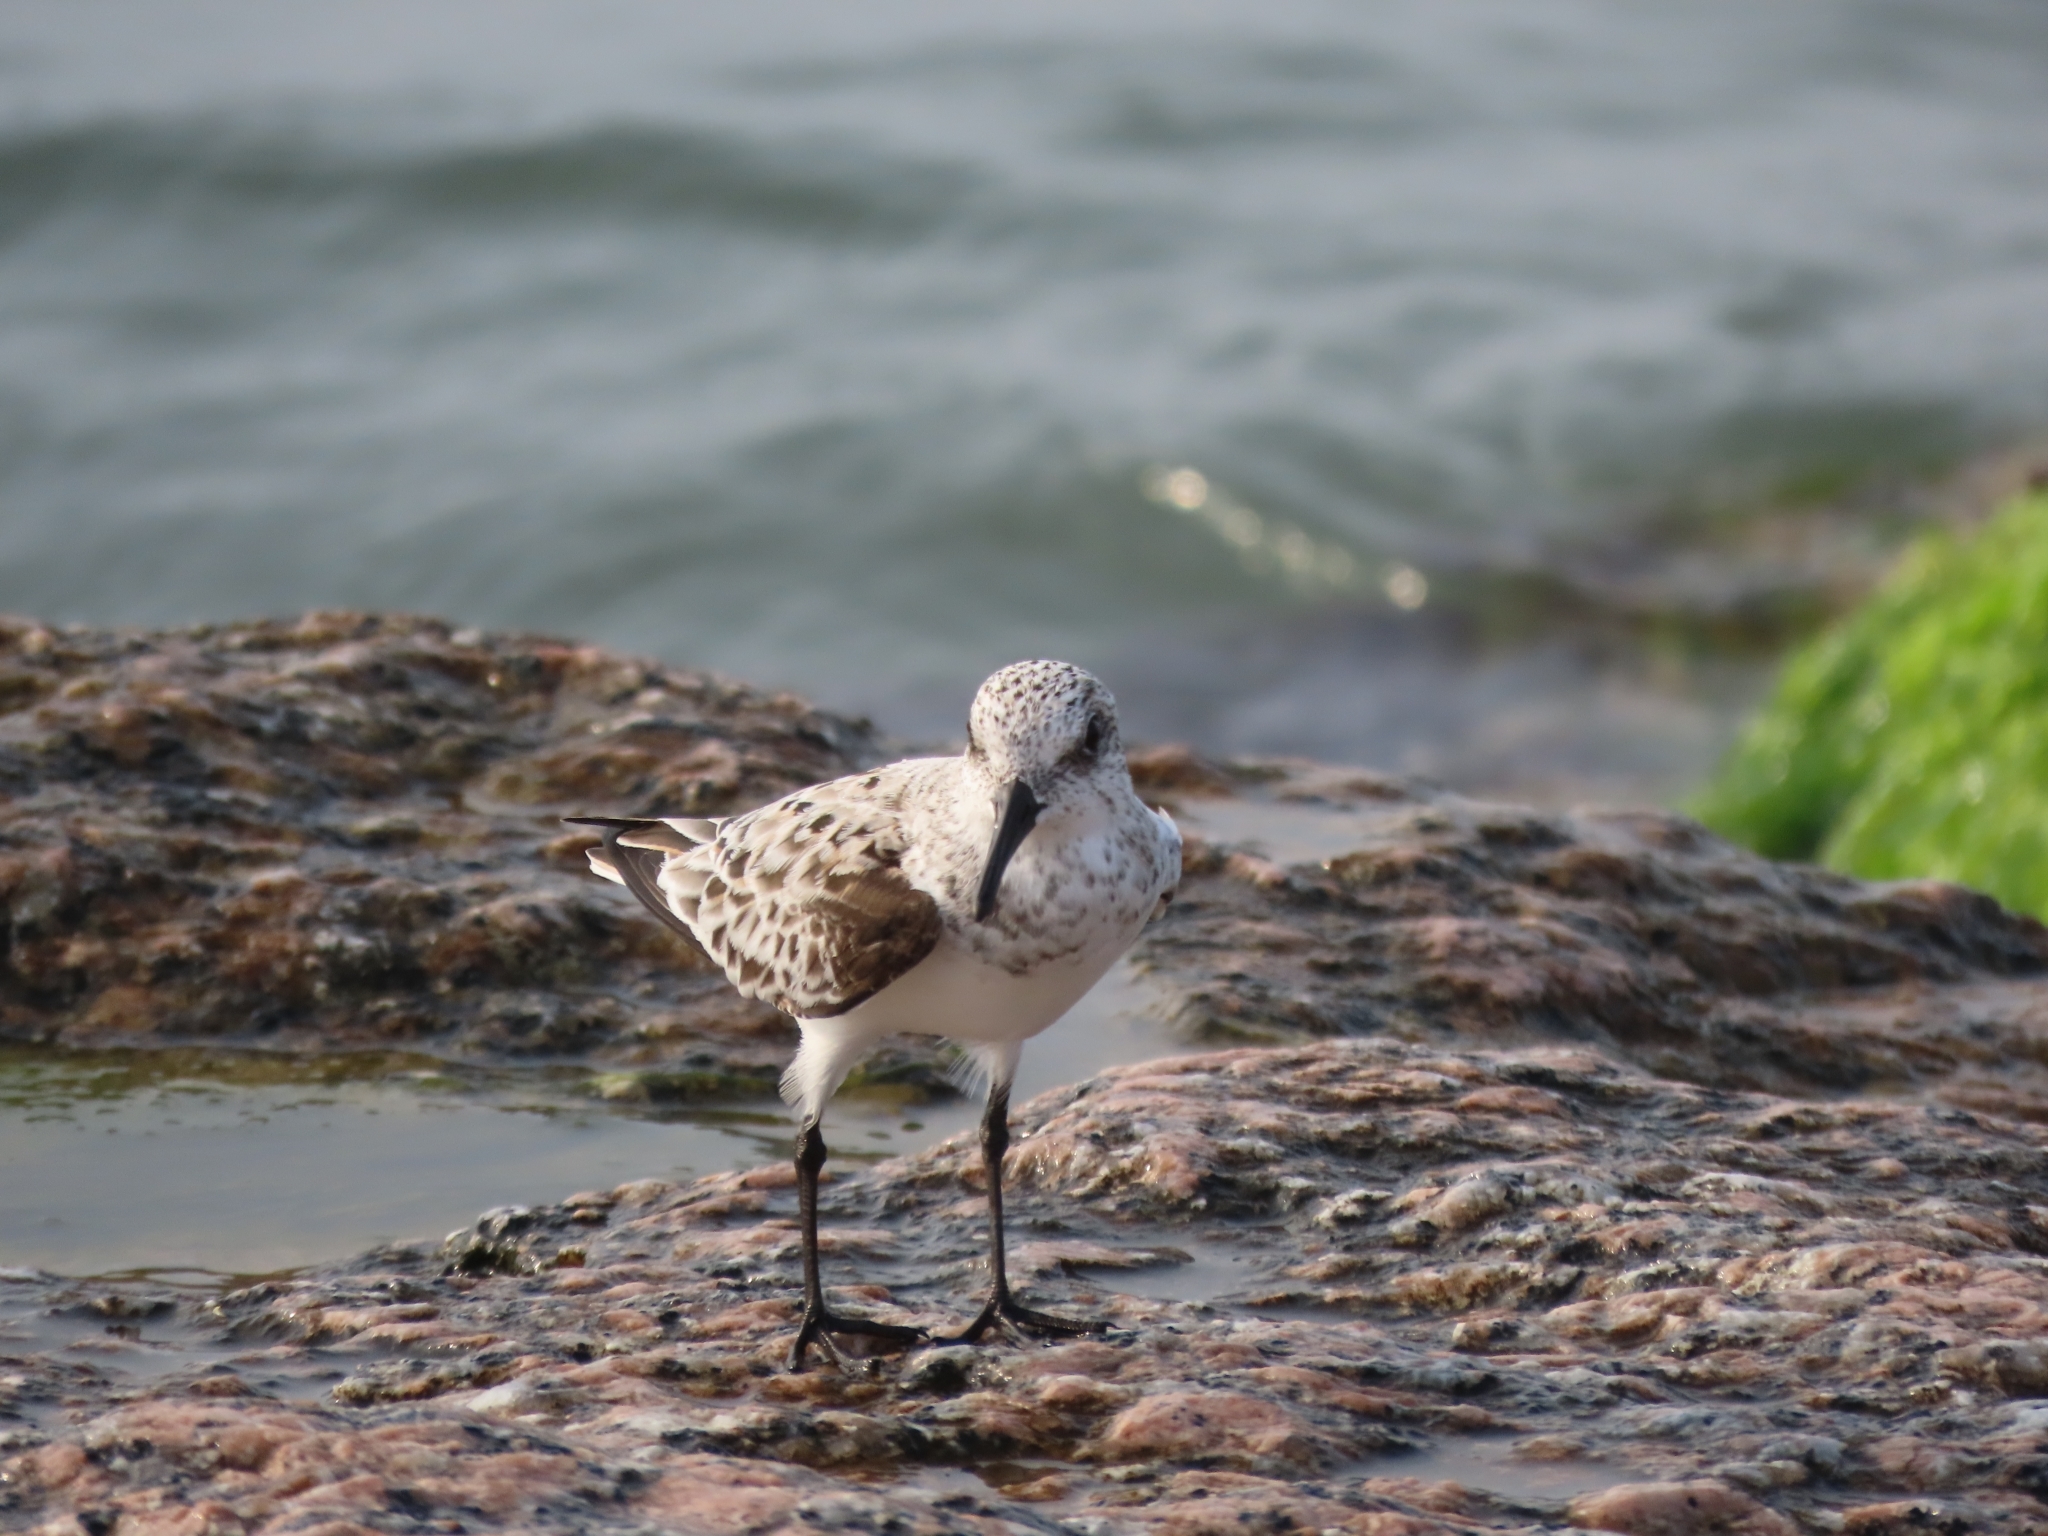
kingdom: Animalia
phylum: Chordata
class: Aves
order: Charadriiformes
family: Scolopacidae
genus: Calidris
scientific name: Calidris alba
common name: Sanderling
